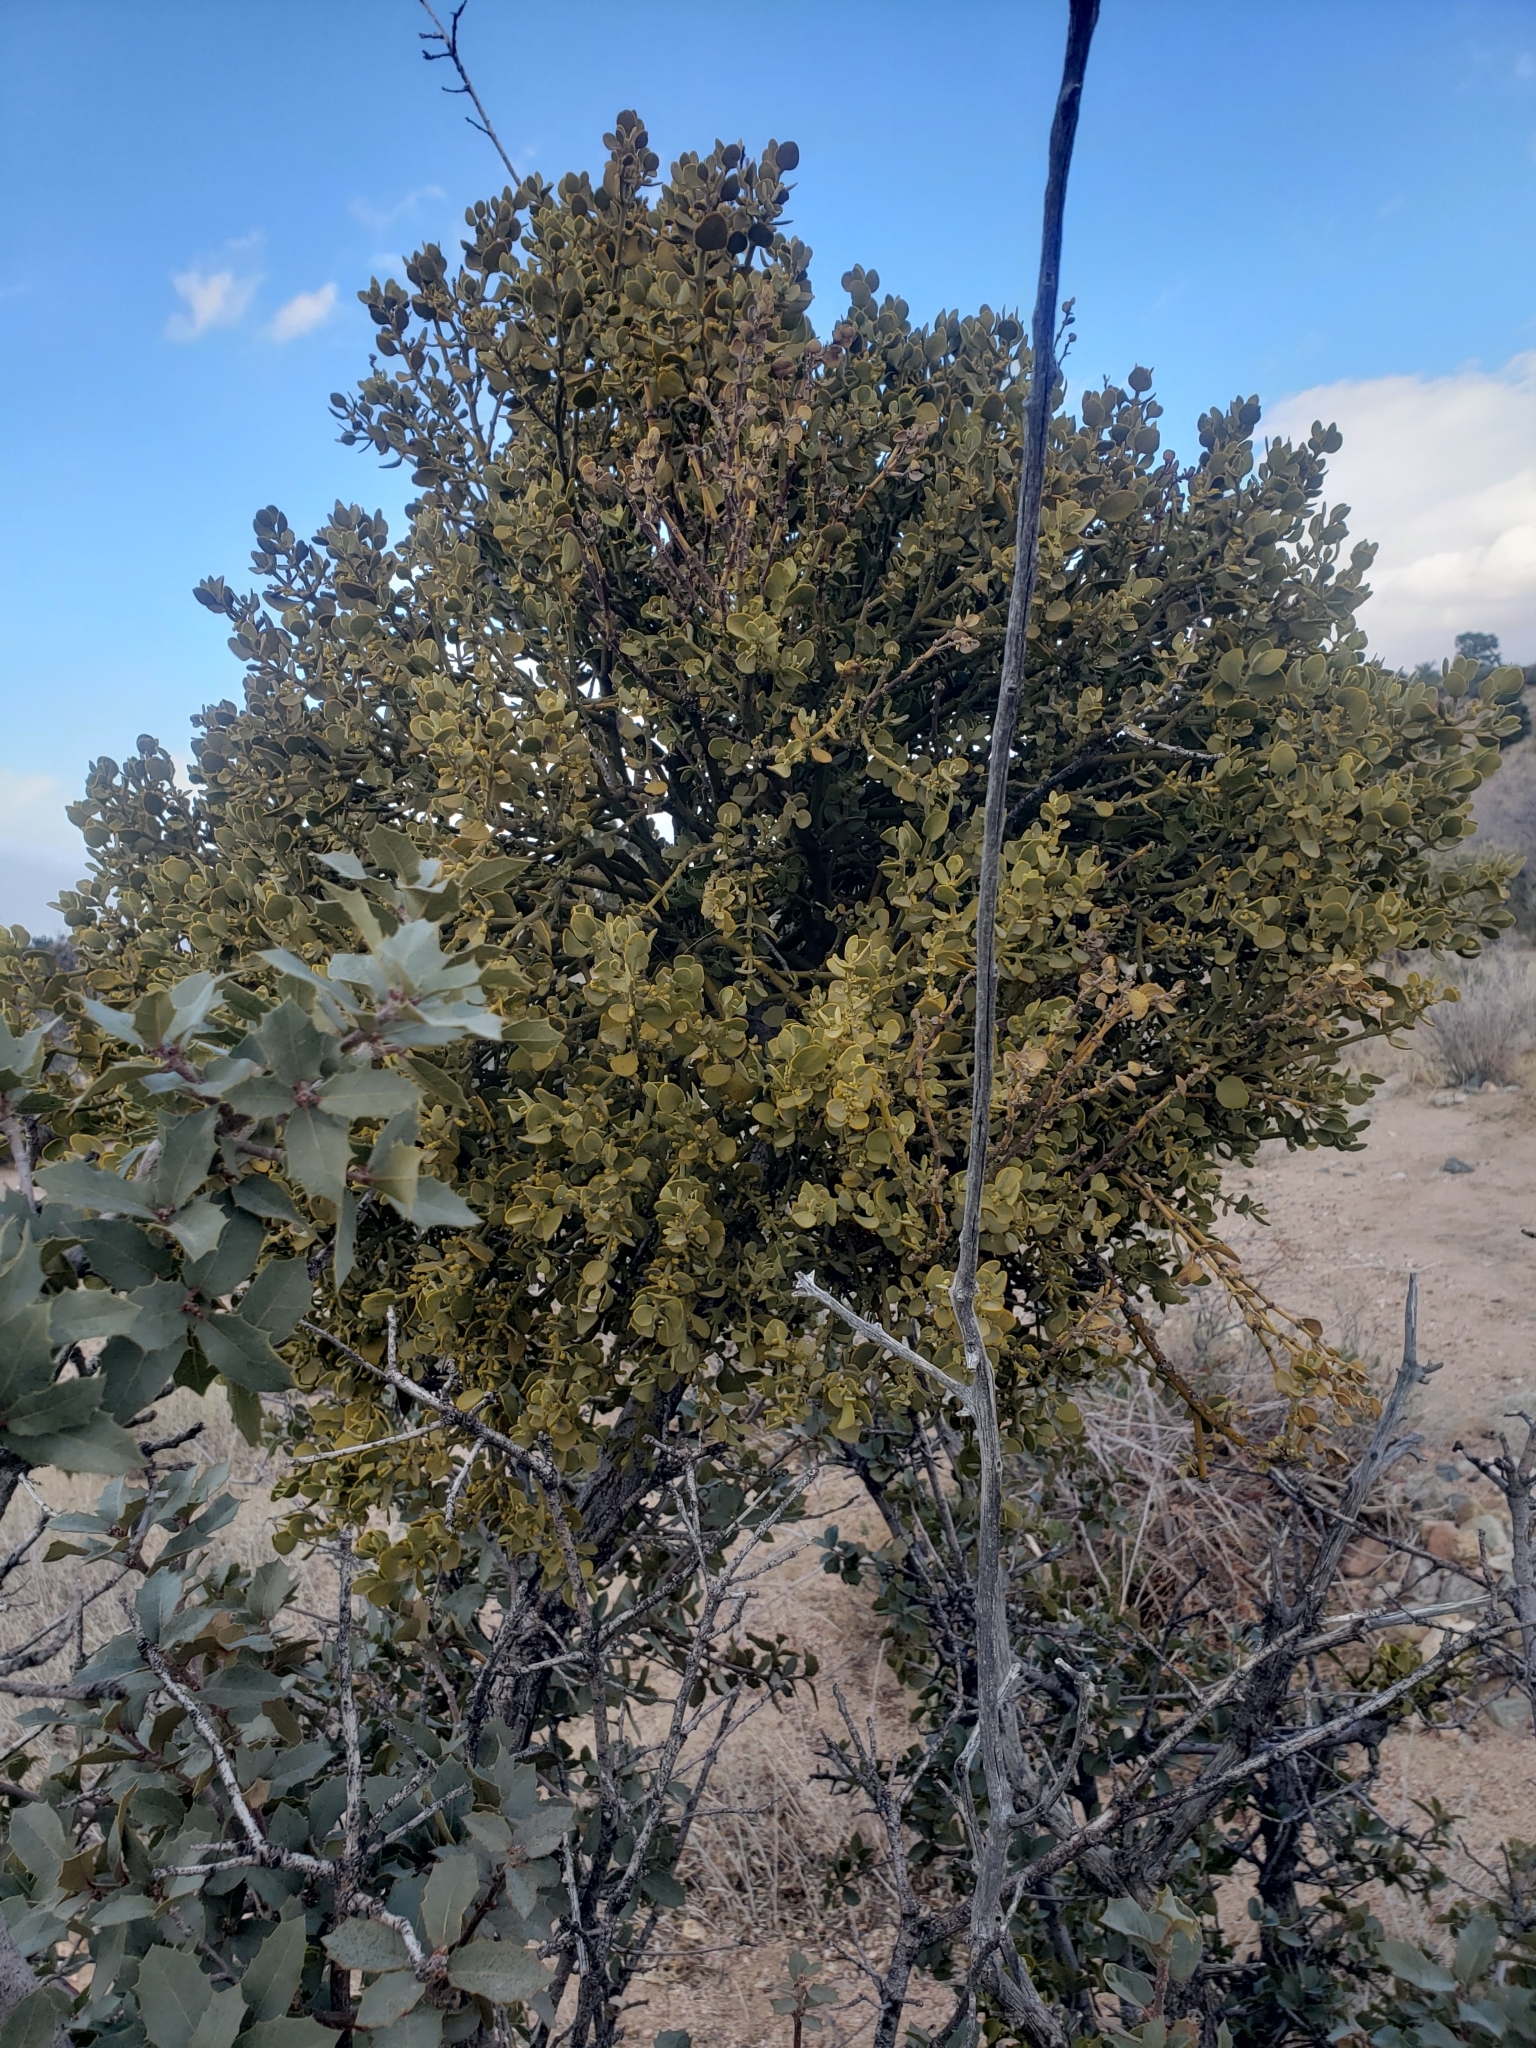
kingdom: Plantae
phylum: Tracheophyta
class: Magnoliopsida
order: Santalales
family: Viscaceae
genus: Phoradendron
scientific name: Phoradendron coryae
